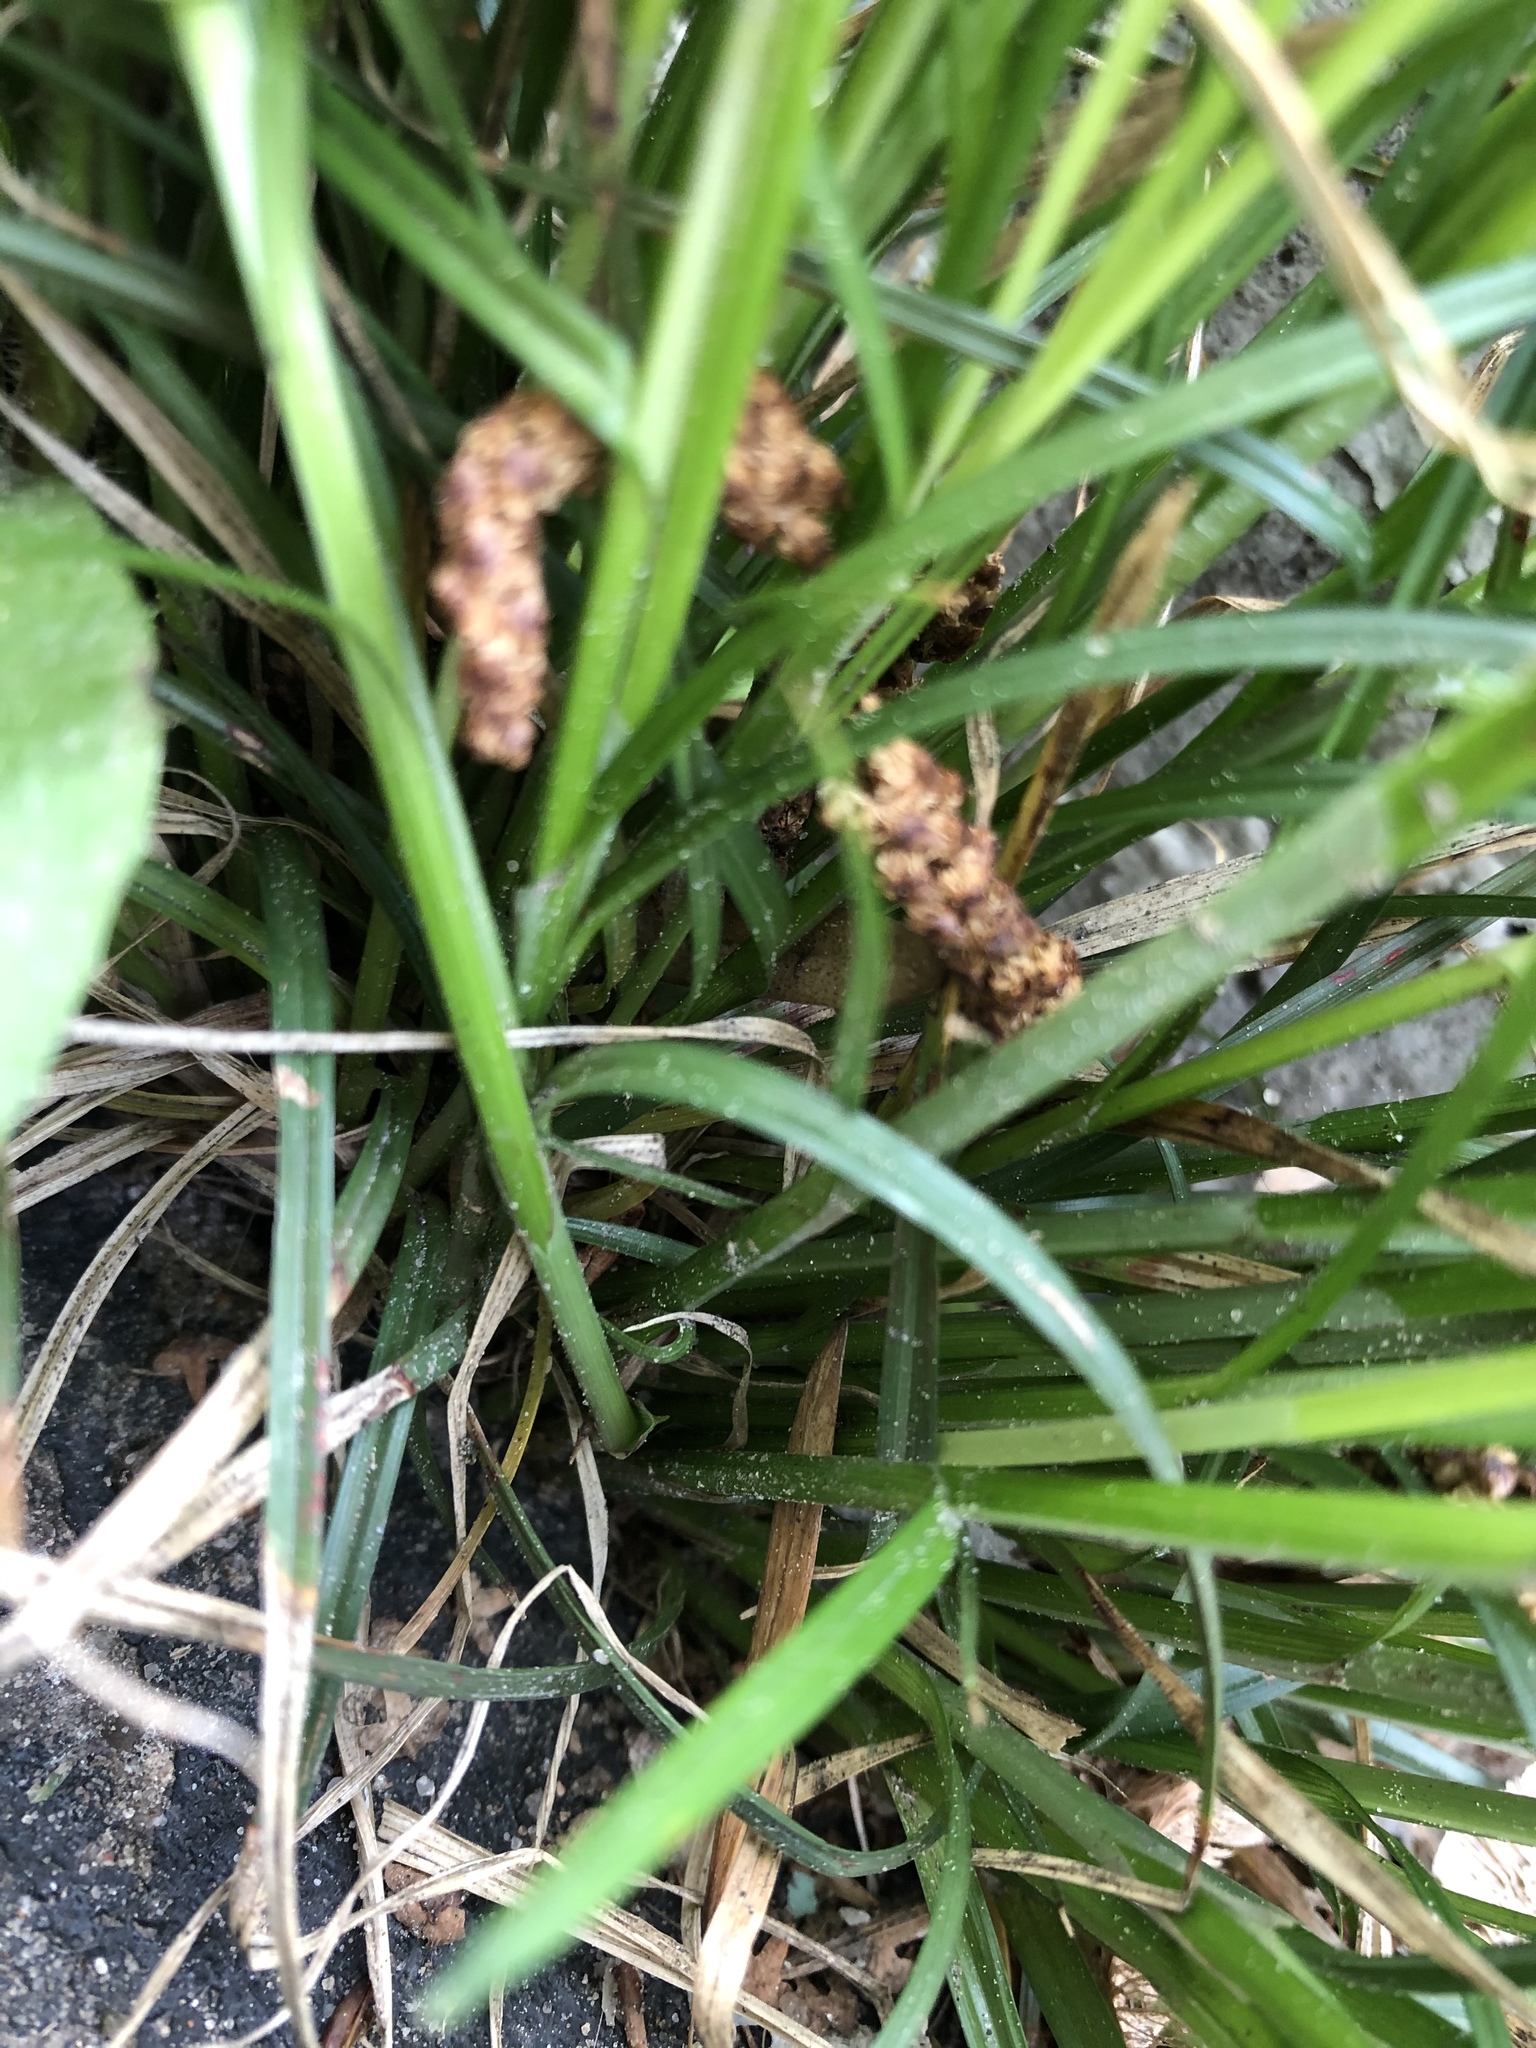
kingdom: Plantae
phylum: Tracheophyta
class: Liliopsida
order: Poales
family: Cyperaceae
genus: Carex
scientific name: Carex spicata
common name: Spiked sedge
